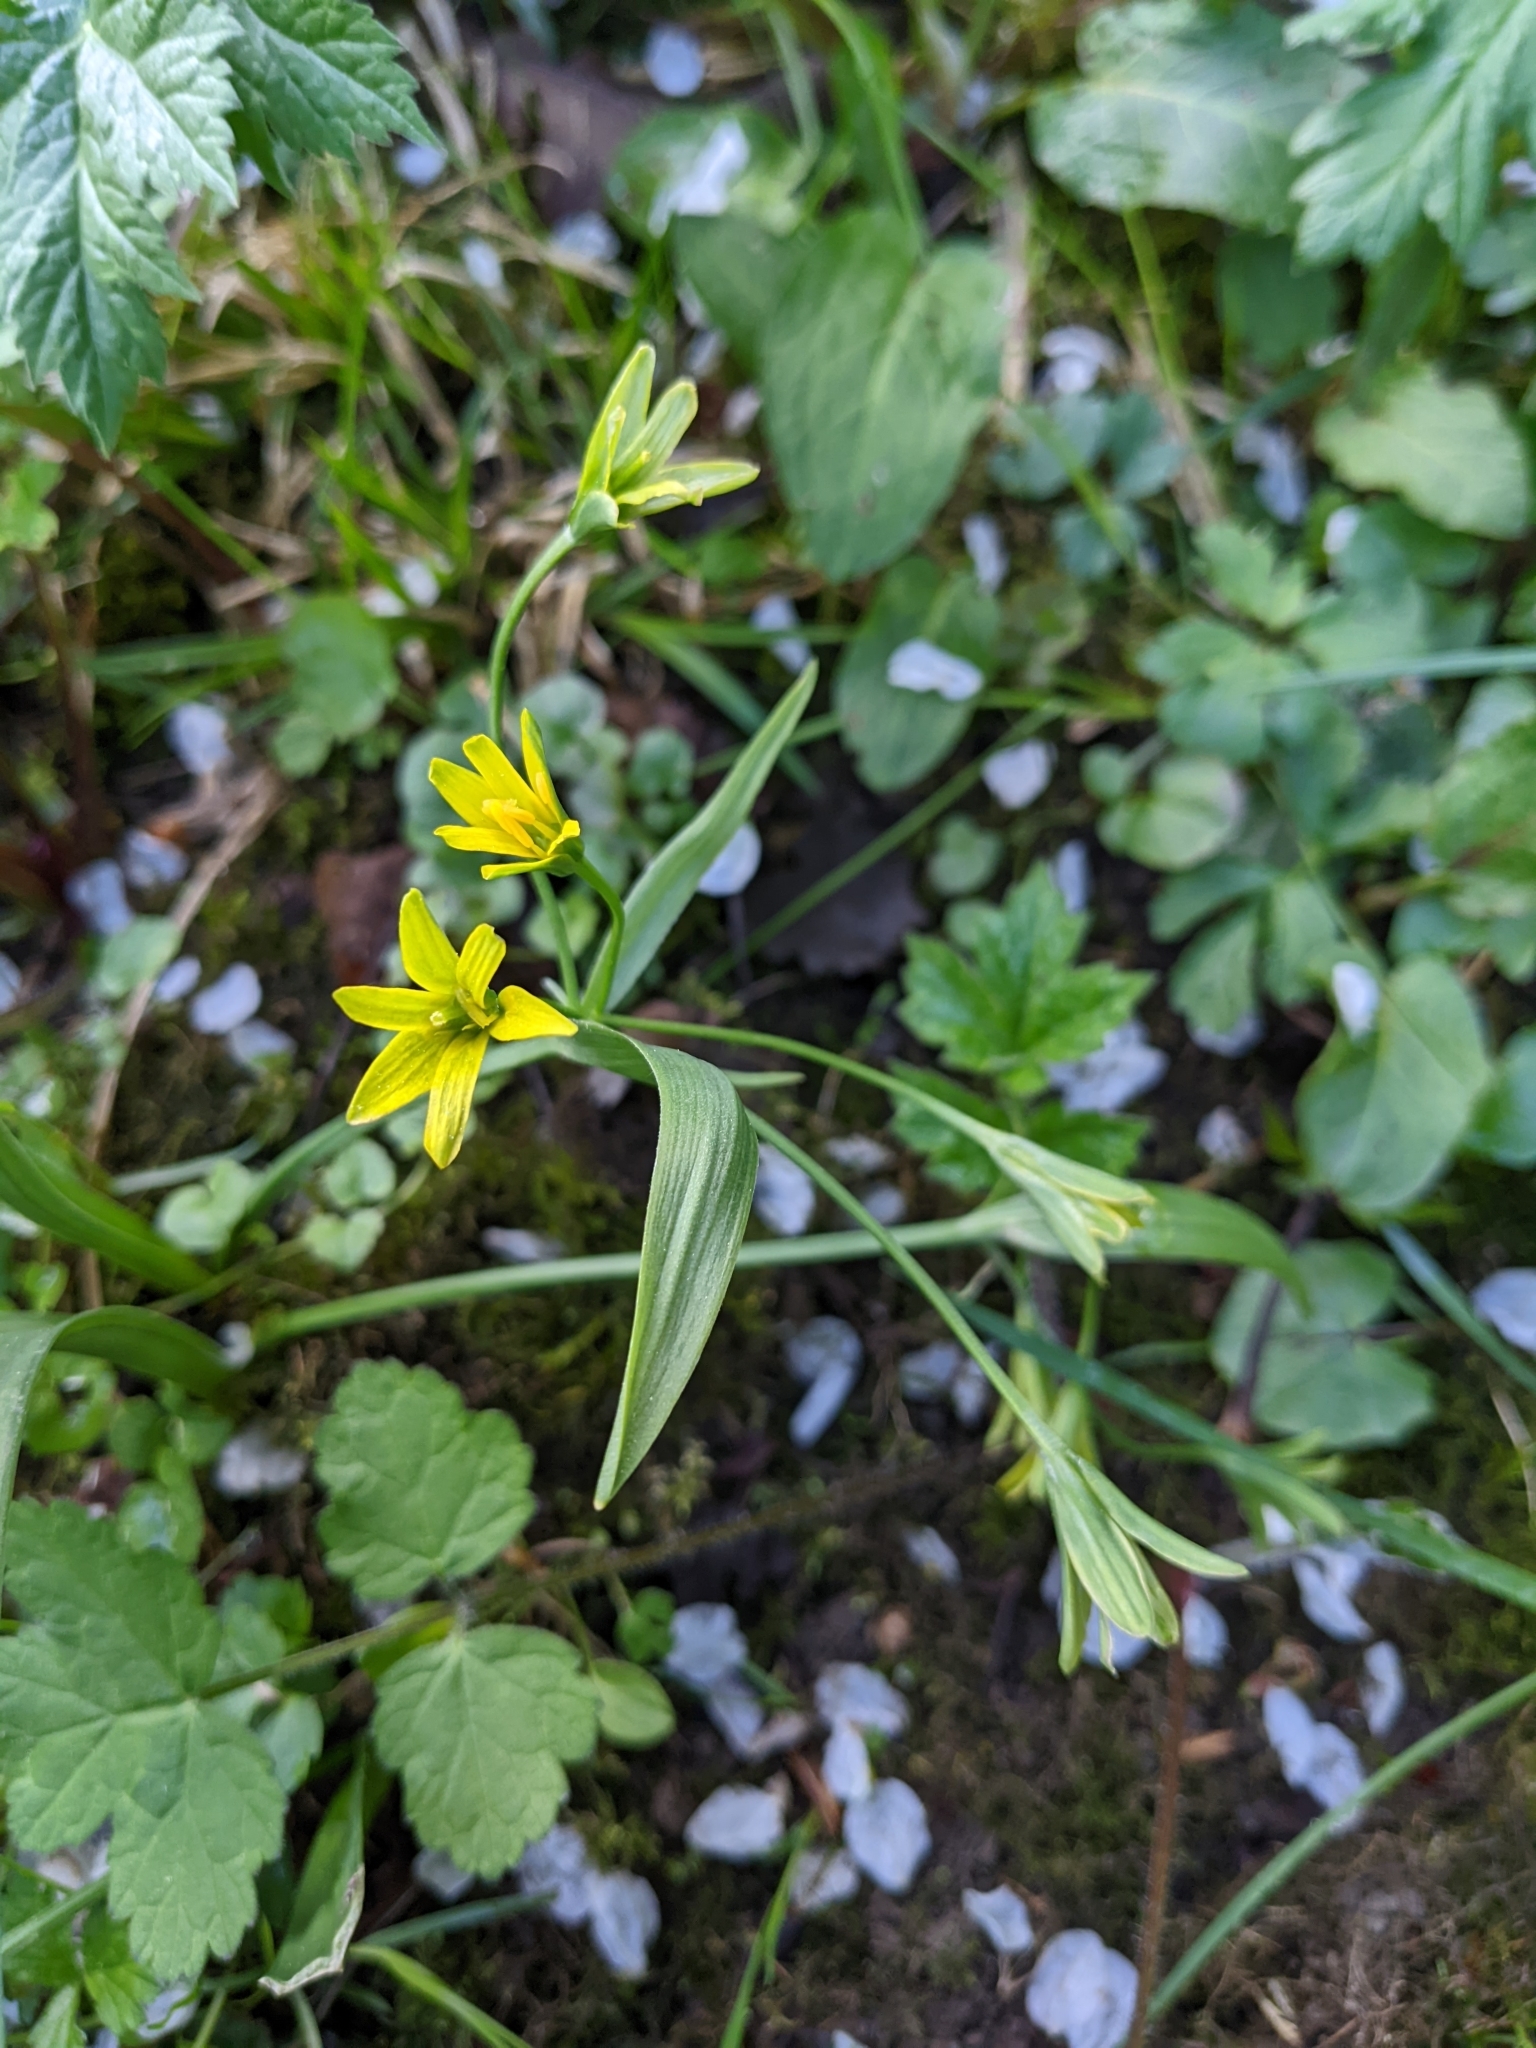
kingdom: Plantae
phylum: Tracheophyta
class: Liliopsida
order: Liliales
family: Liliaceae
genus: Gagea
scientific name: Gagea lutea
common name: Yellow star-of-bethlehem
